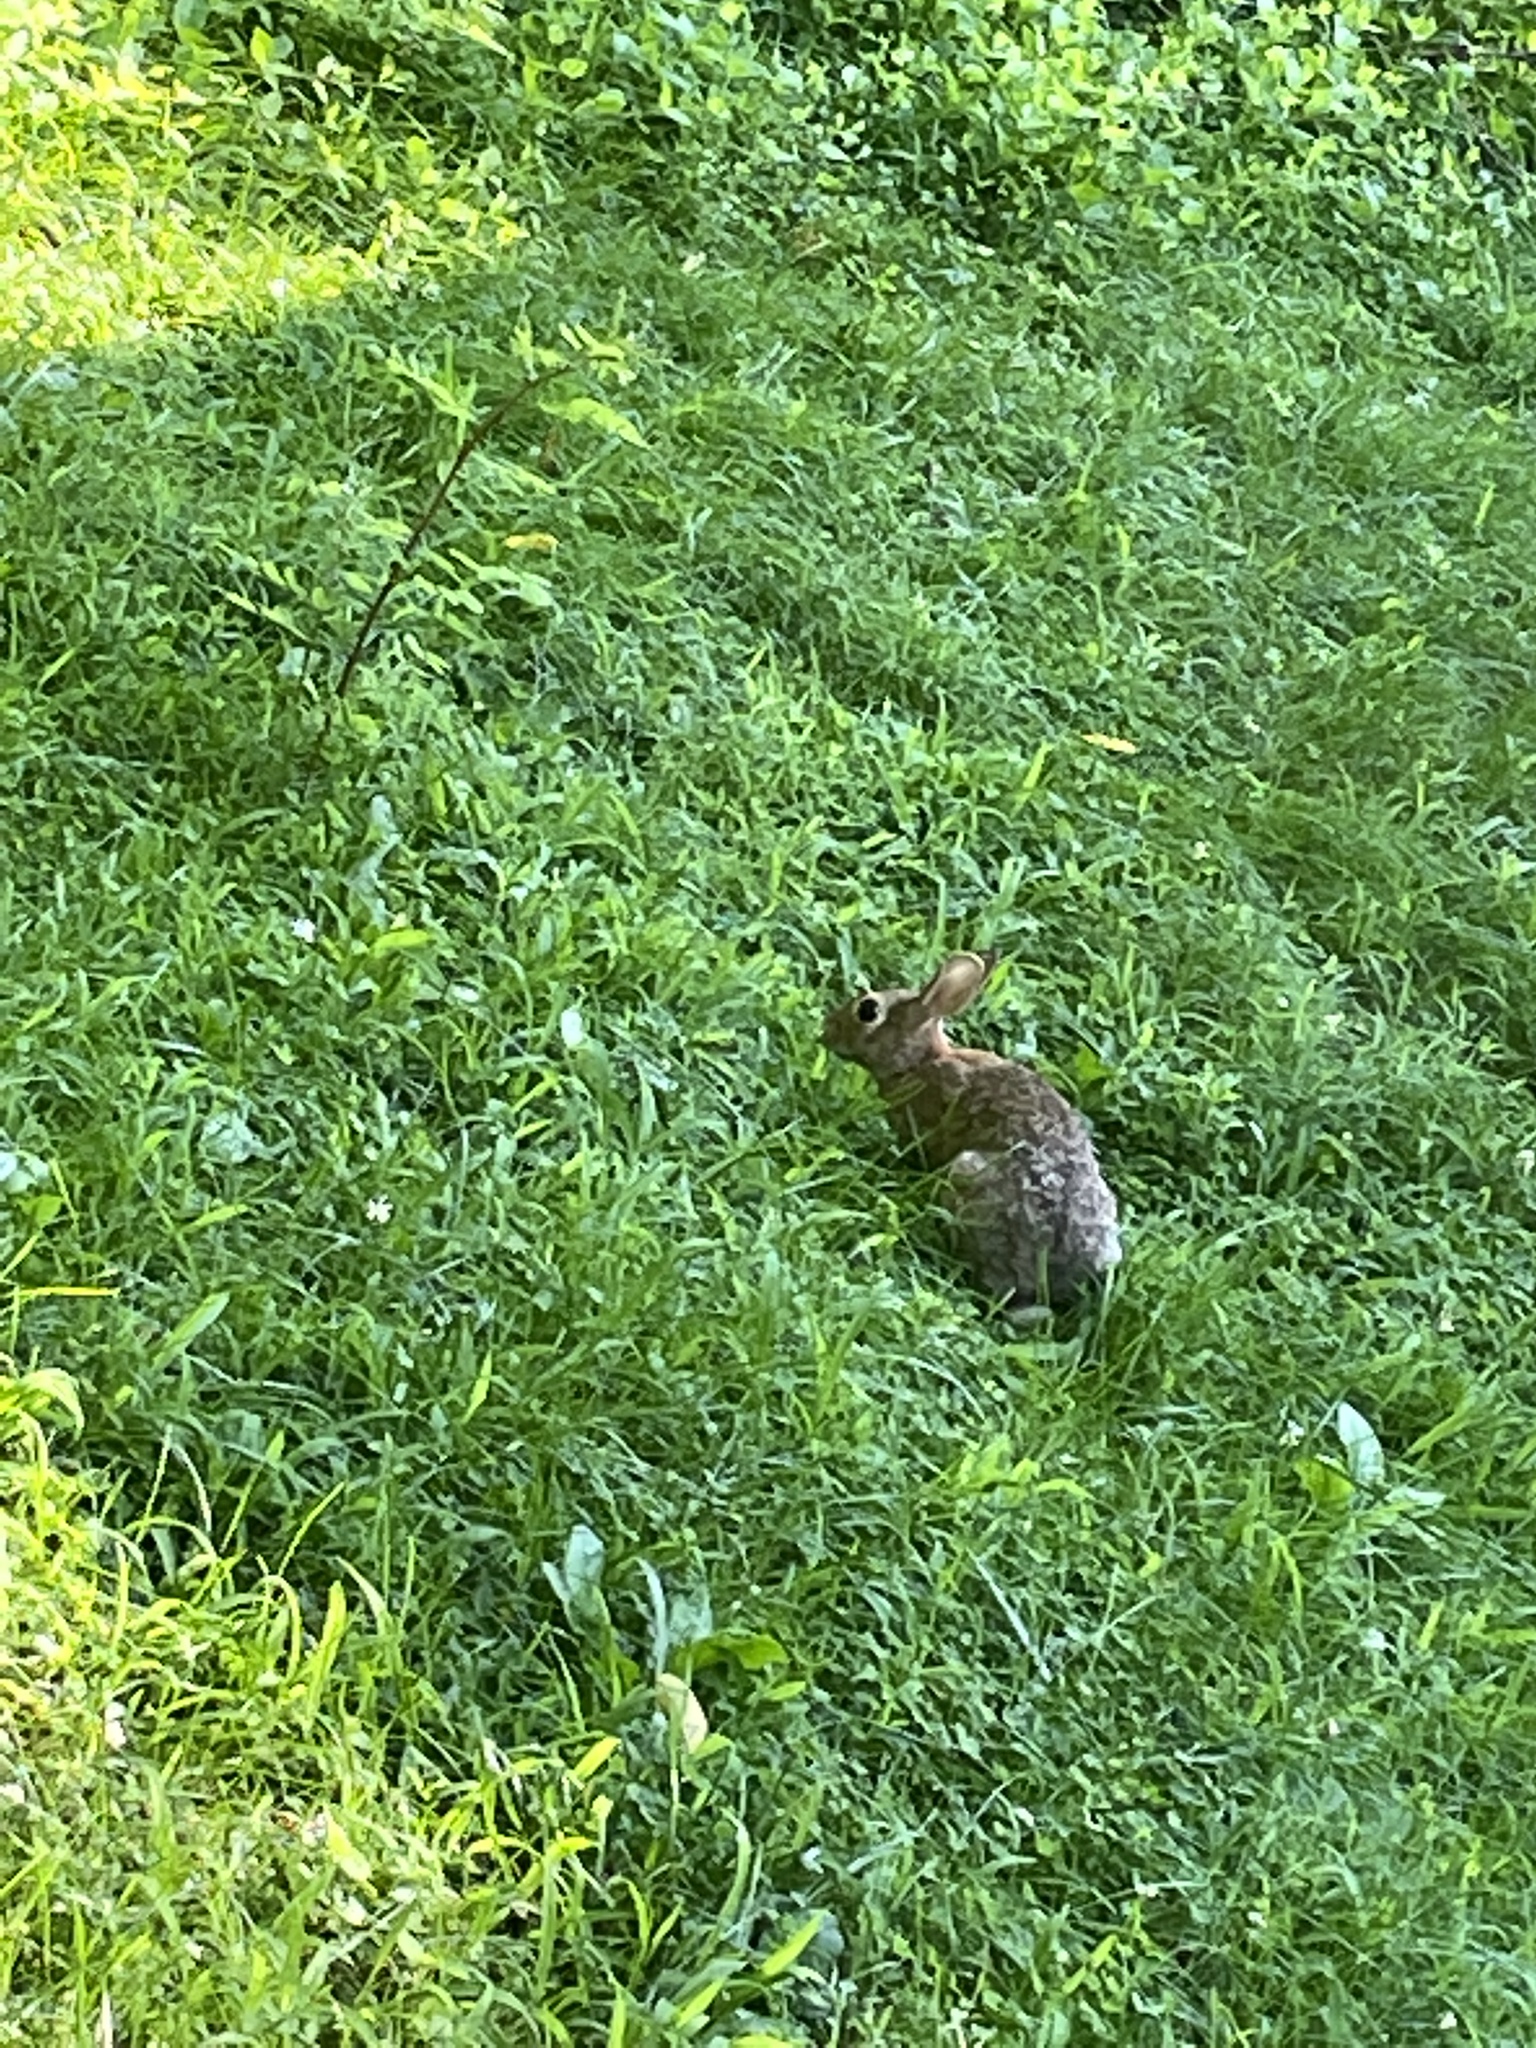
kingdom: Animalia
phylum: Chordata
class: Mammalia
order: Lagomorpha
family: Leporidae
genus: Sylvilagus
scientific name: Sylvilagus floridanus
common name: Eastern cottontail
